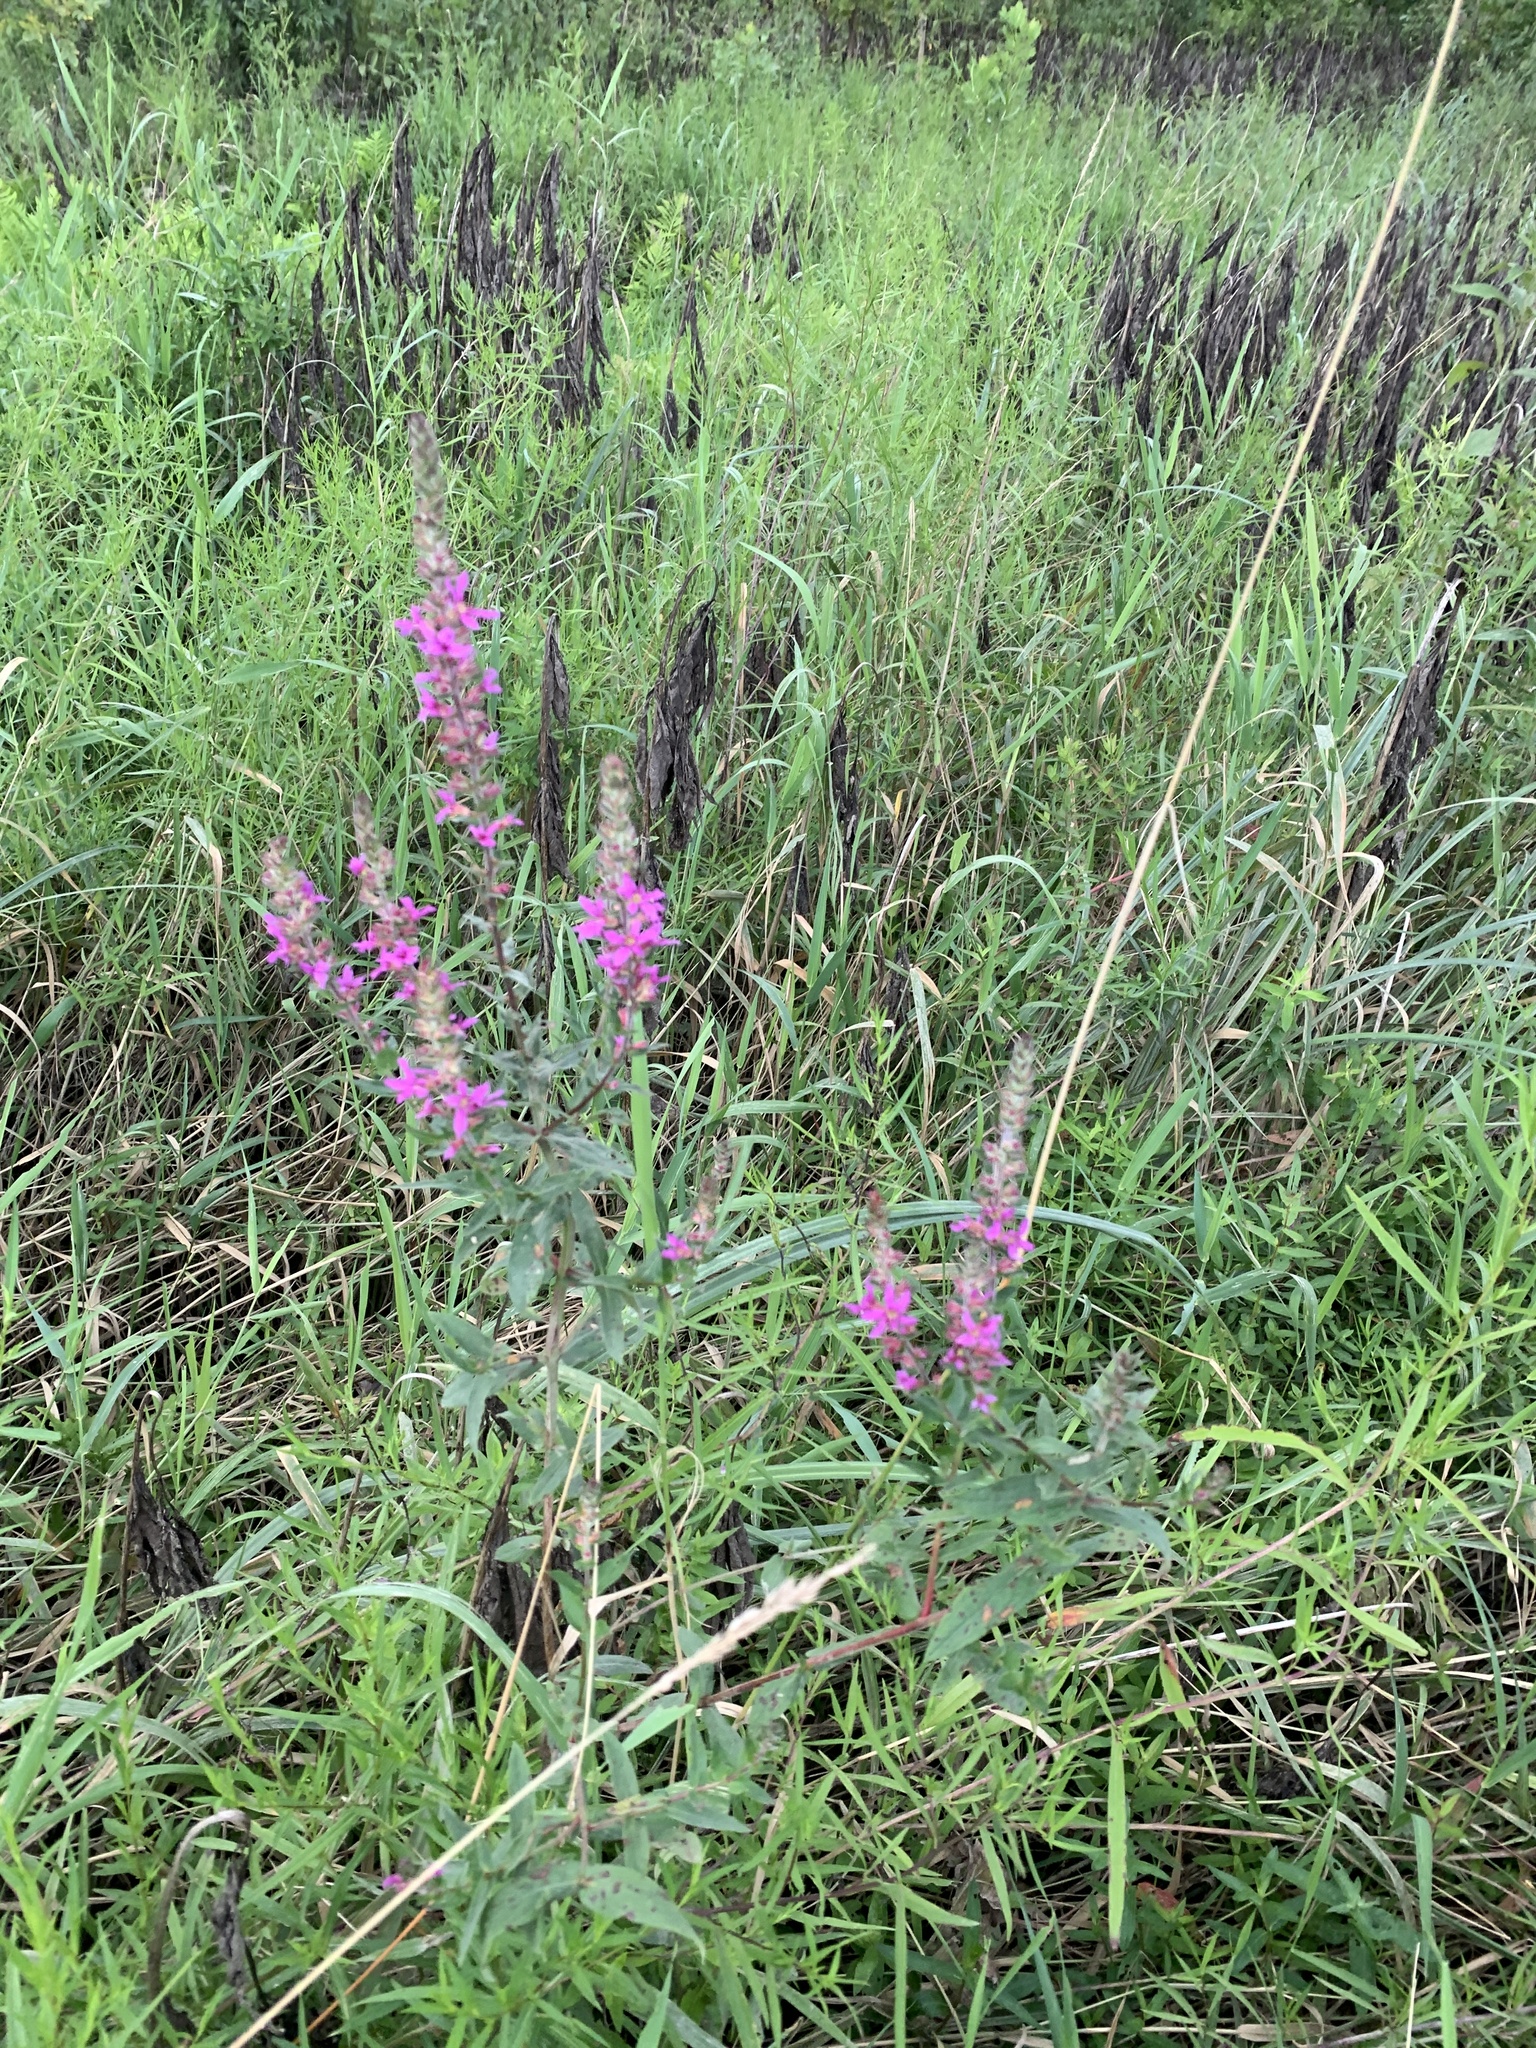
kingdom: Plantae
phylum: Tracheophyta
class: Magnoliopsida
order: Myrtales
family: Lythraceae
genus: Lythrum
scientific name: Lythrum salicaria
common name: Purple loosestrife
